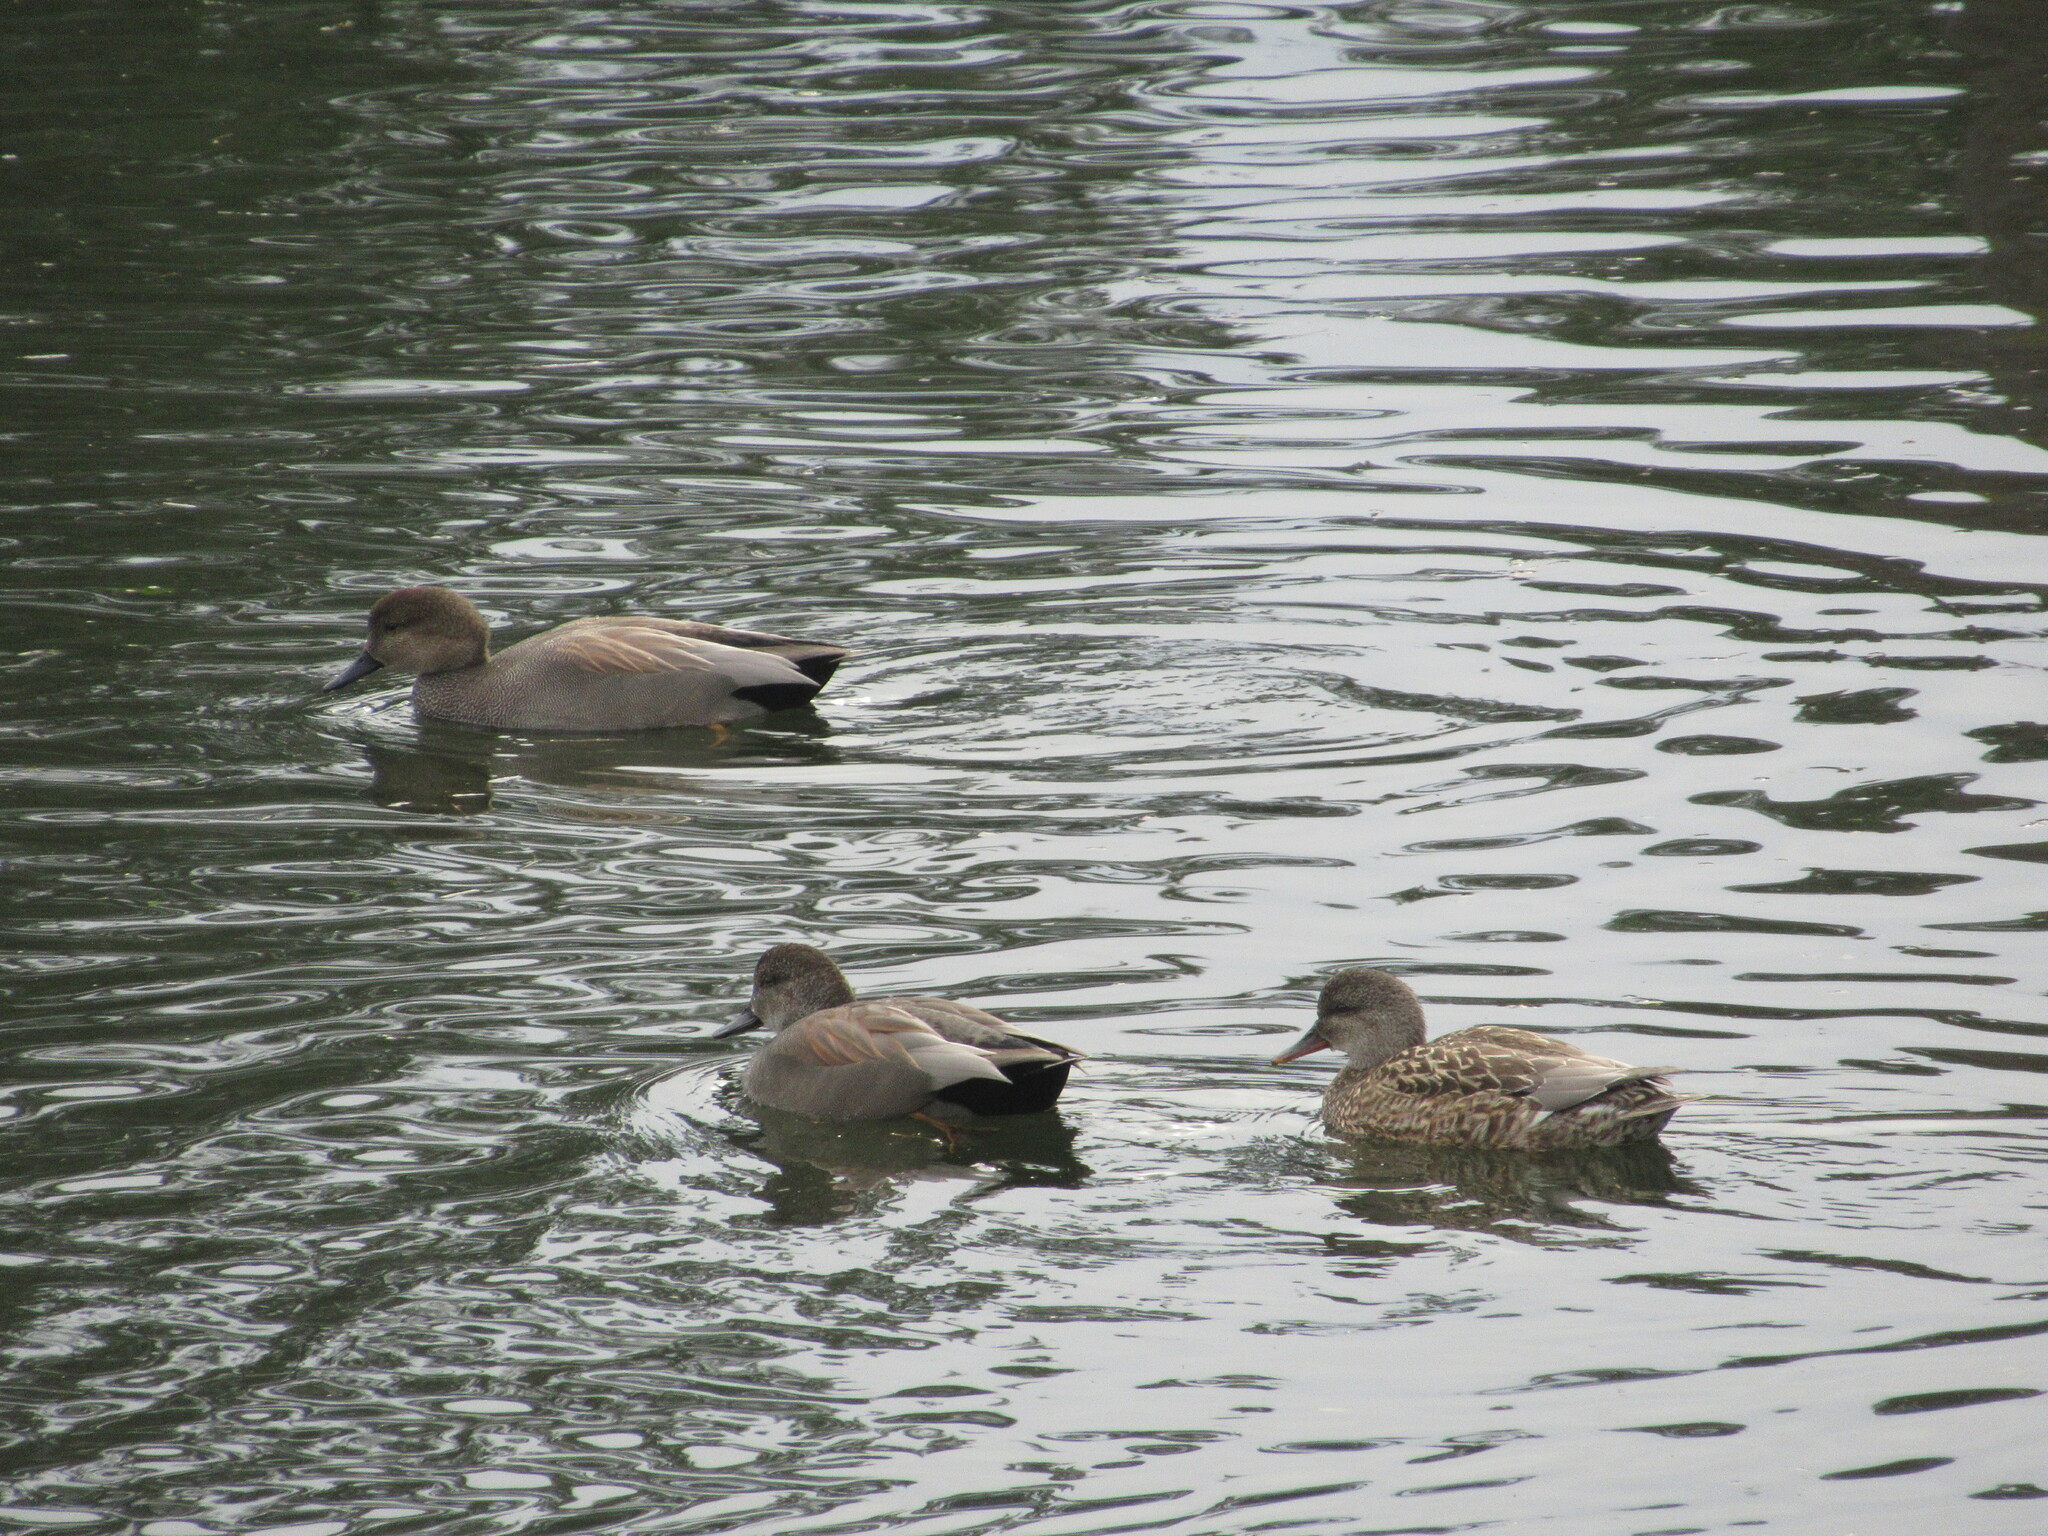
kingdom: Animalia
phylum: Chordata
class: Aves
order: Anseriformes
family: Anatidae
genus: Mareca
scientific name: Mareca strepera
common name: Gadwall
